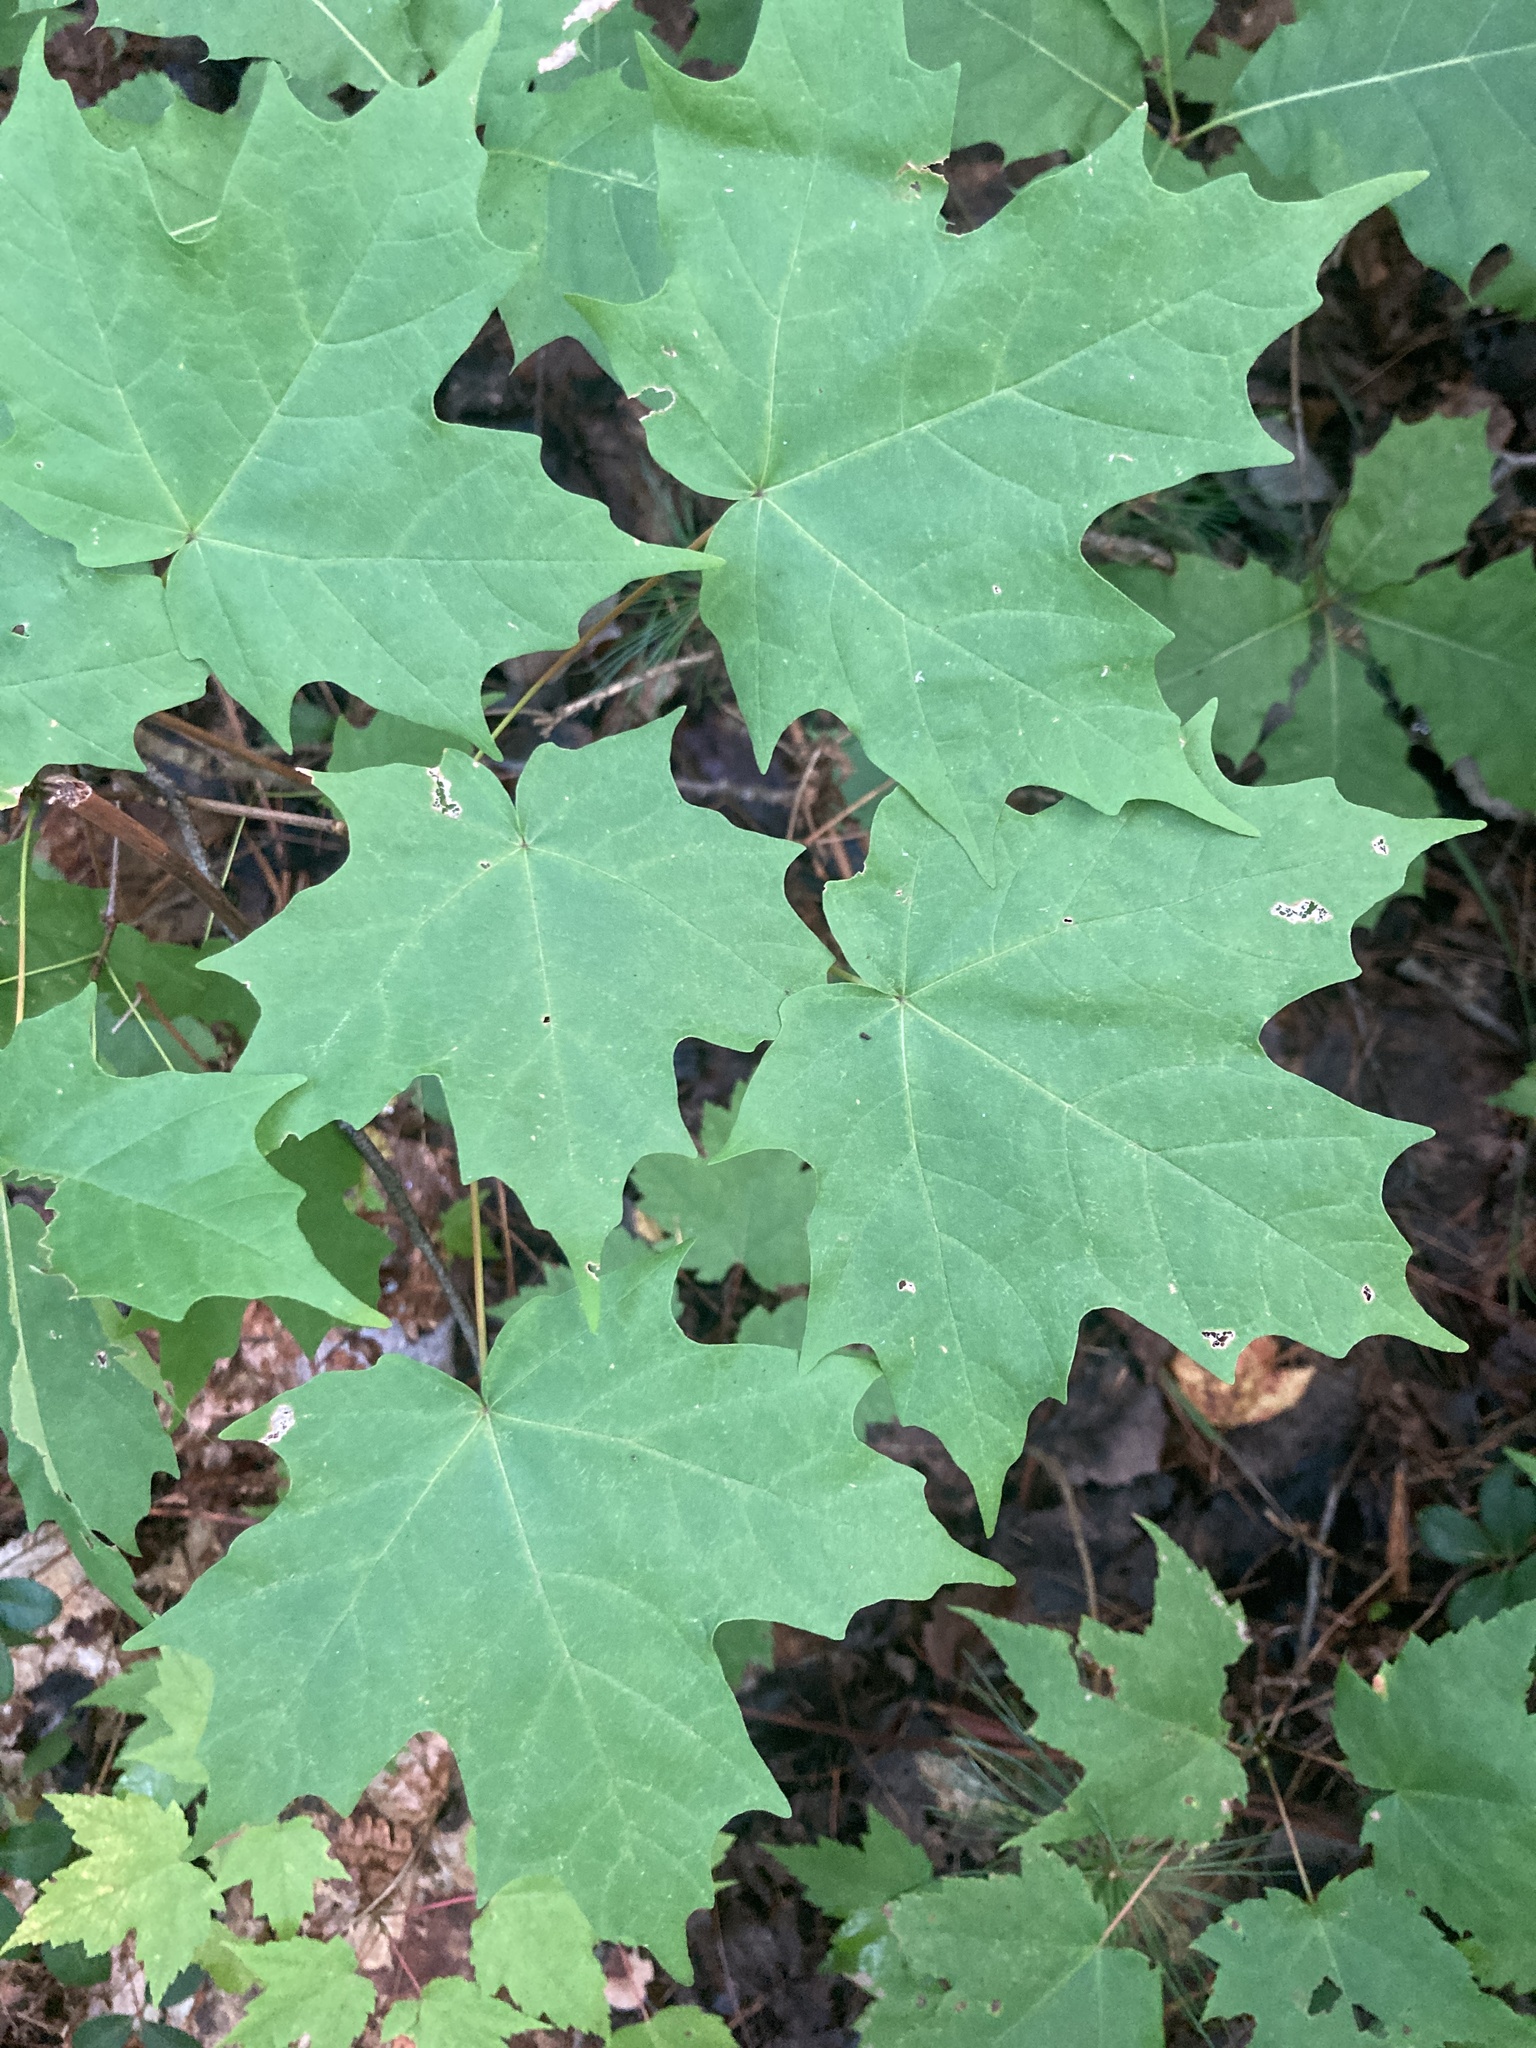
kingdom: Plantae
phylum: Tracheophyta
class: Magnoliopsida
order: Sapindales
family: Sapindaceae
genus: Acer
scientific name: Acer saccharum
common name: Sugar maple
